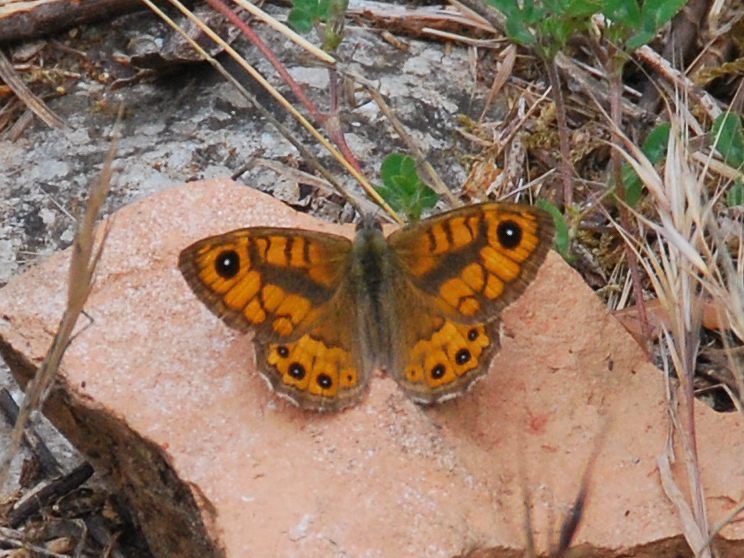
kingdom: Animalia
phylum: Arthropoda
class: Insecta
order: Lepidoptera
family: Nymphalidae
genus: Pararge
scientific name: Pararge Lasiommata megera
